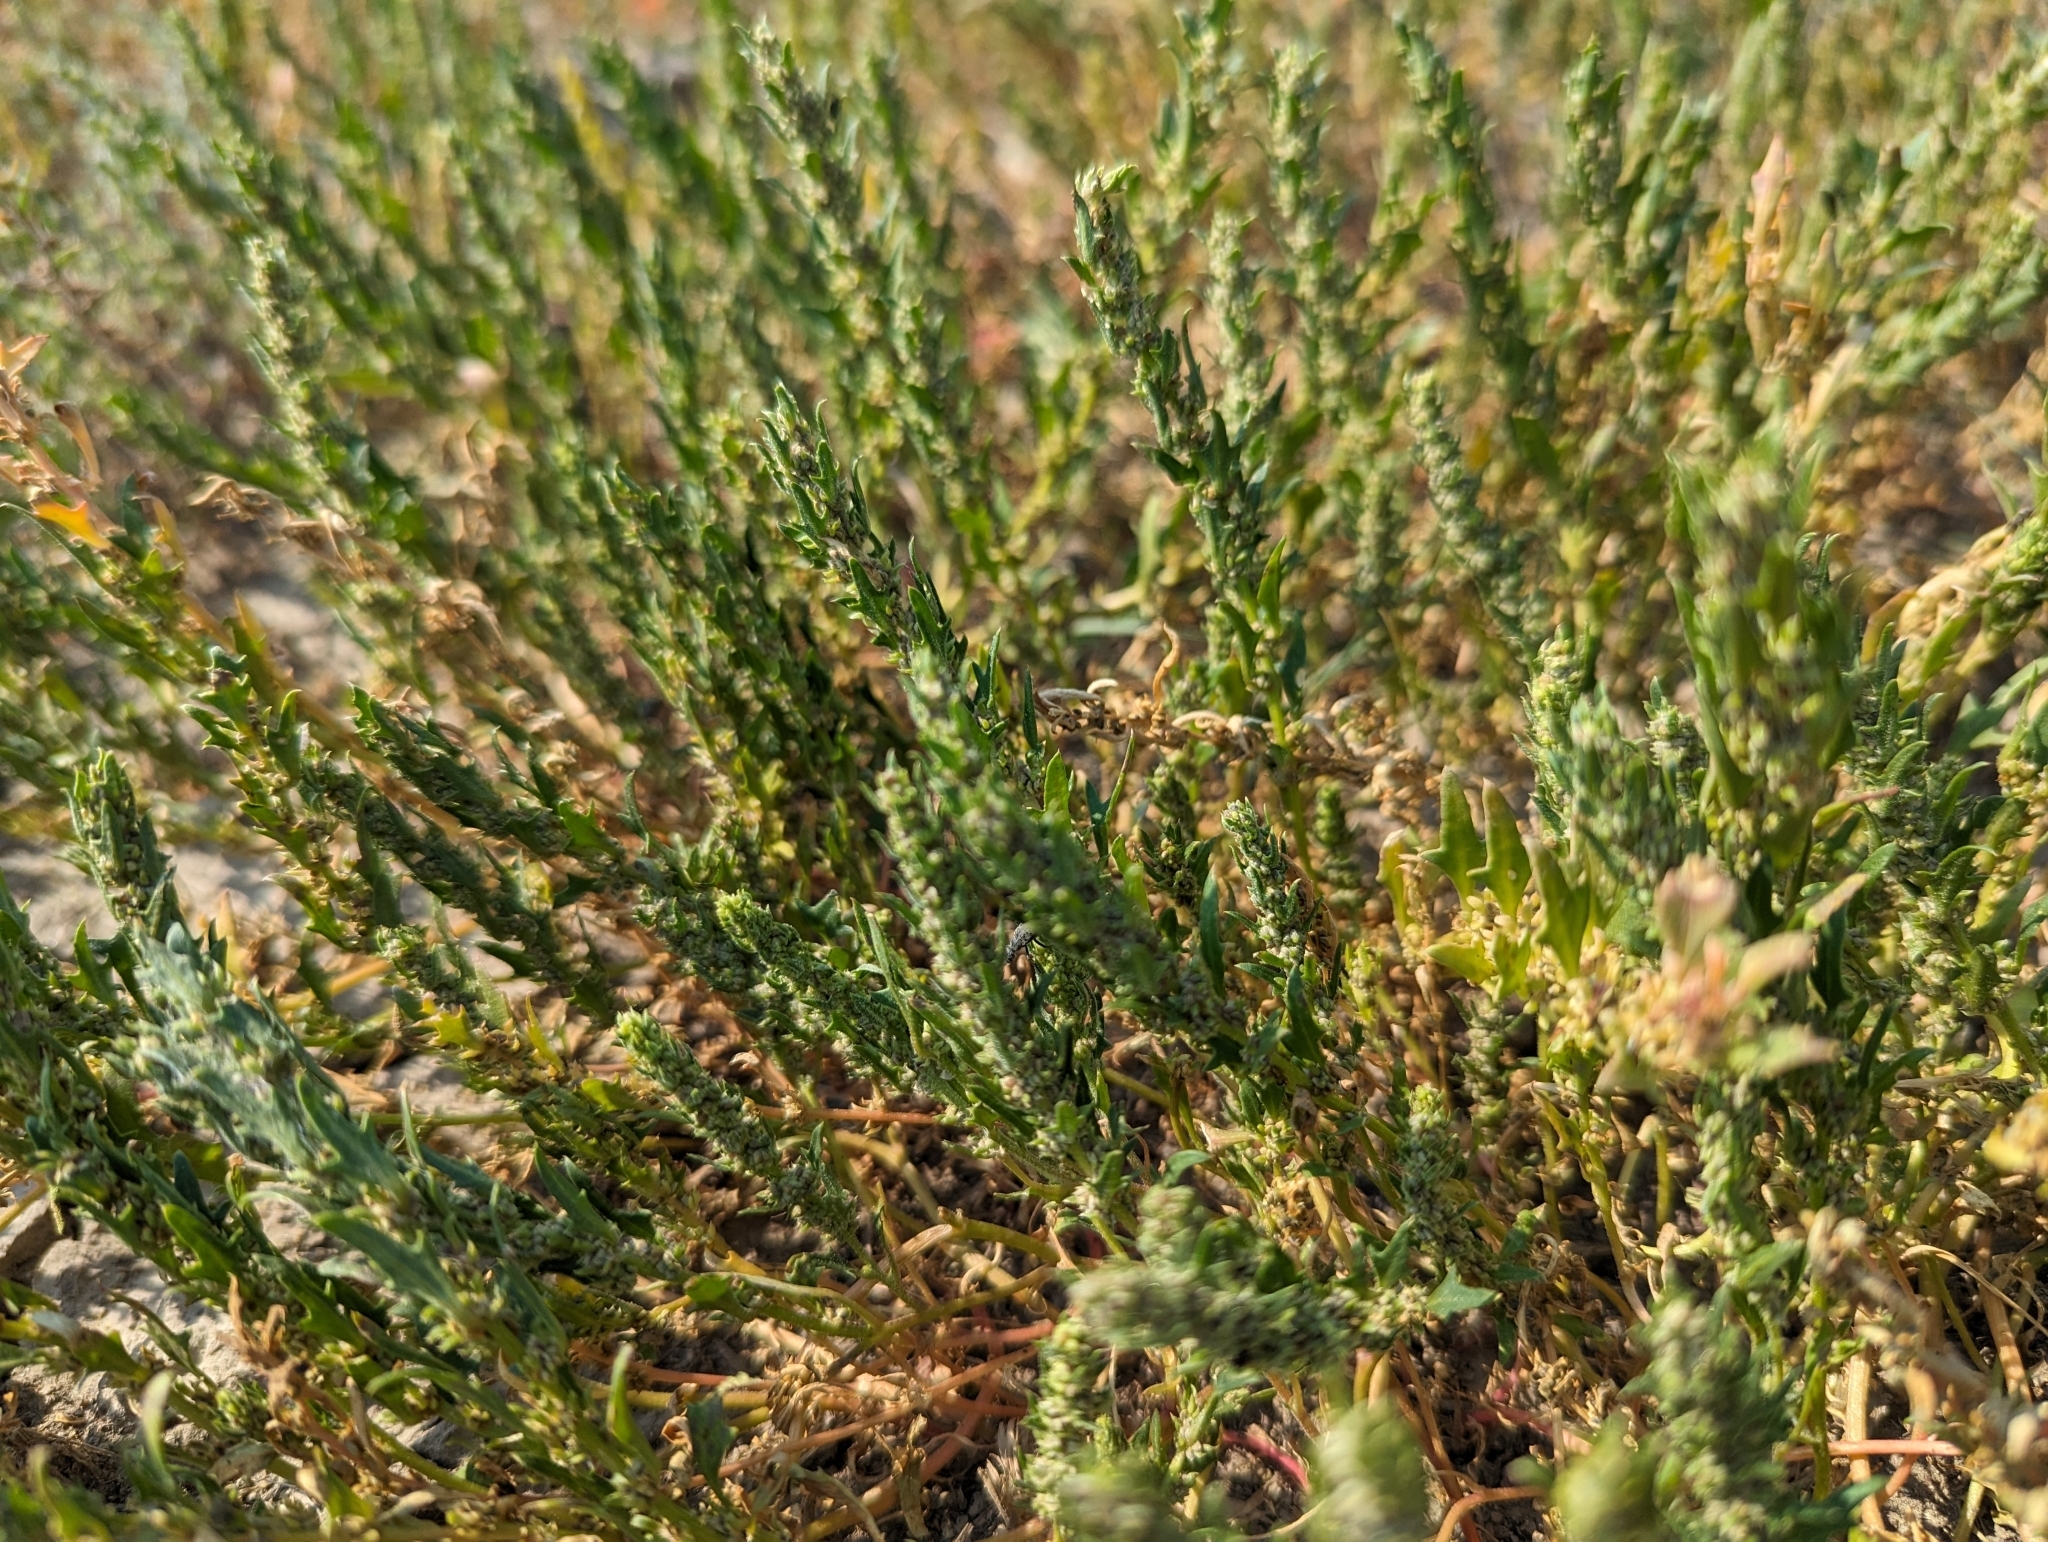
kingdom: Plantae
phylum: Tracheophyta
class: Magnoliopsida
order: Caryophyllales
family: Amaranthaceae
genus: Suaeda
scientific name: Suaeda calceoliformis
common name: Pursh's seepweed
